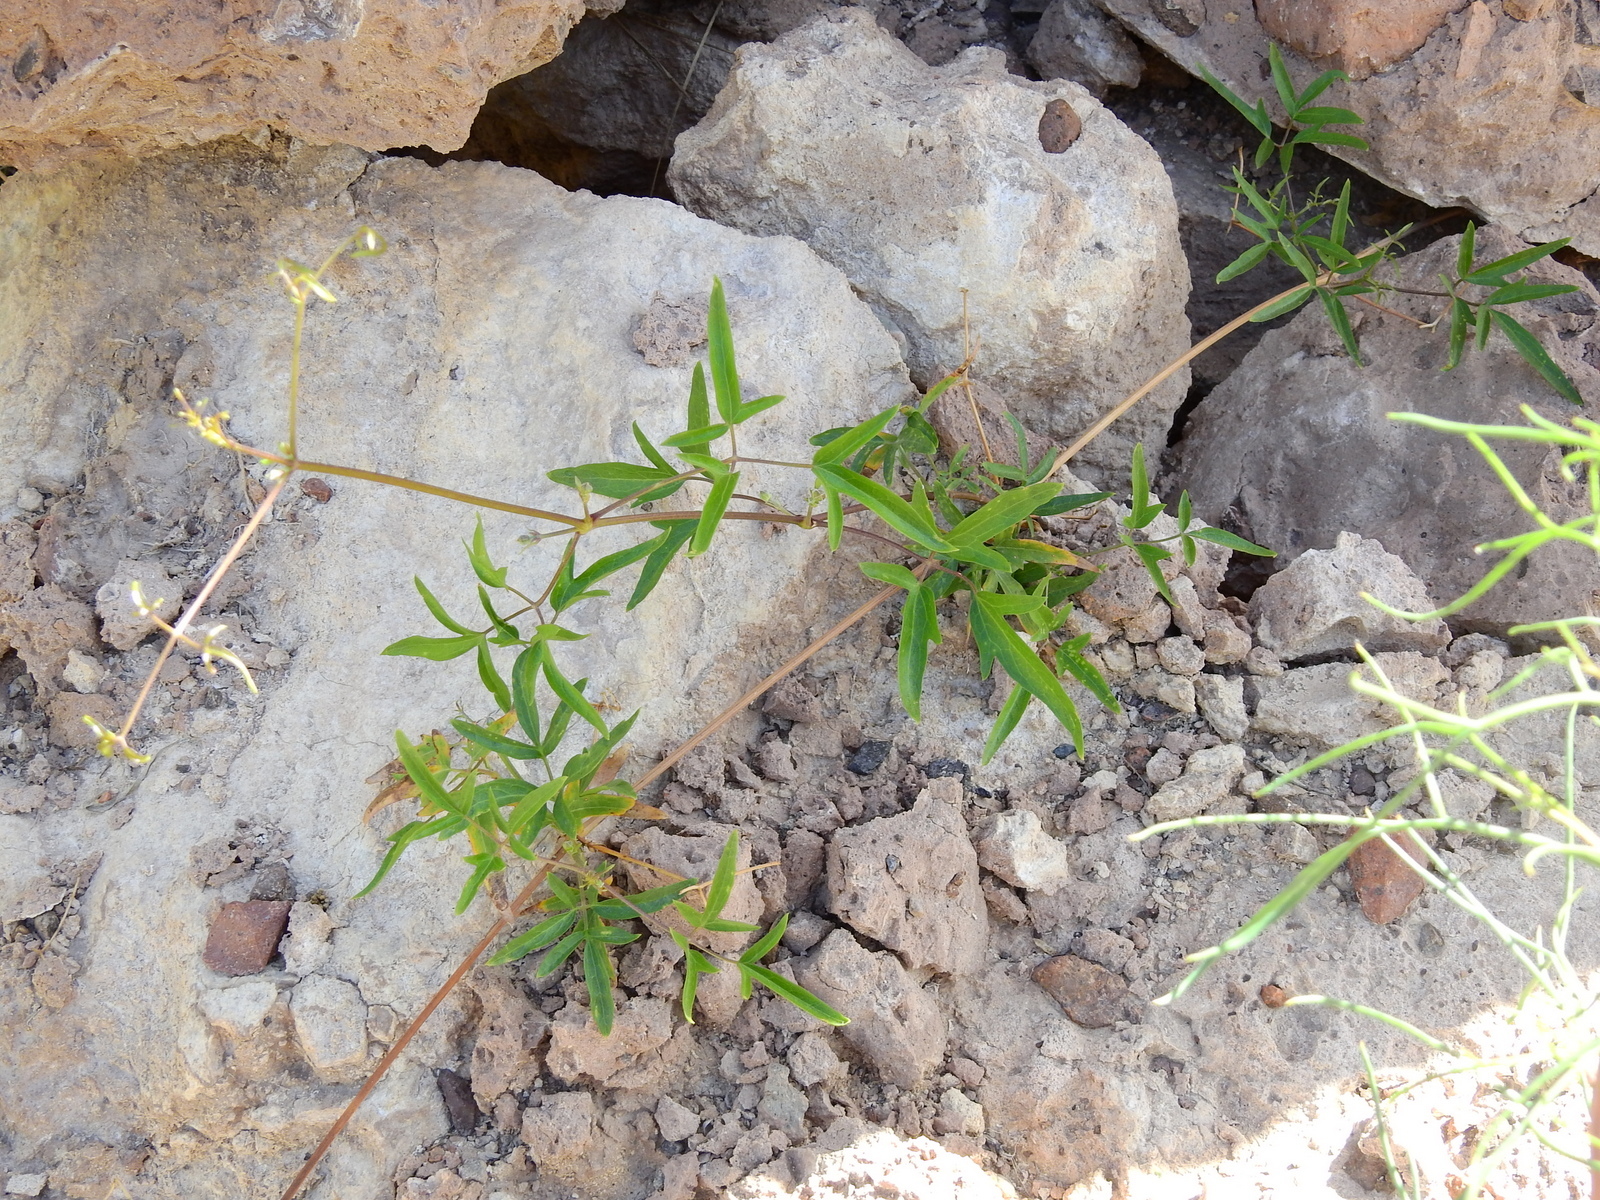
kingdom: Plantae
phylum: Tracheophyta
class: Magnoliopsida
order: Ranunculales
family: Ranunculaceae
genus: Clematis
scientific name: Clematis montevidensis
